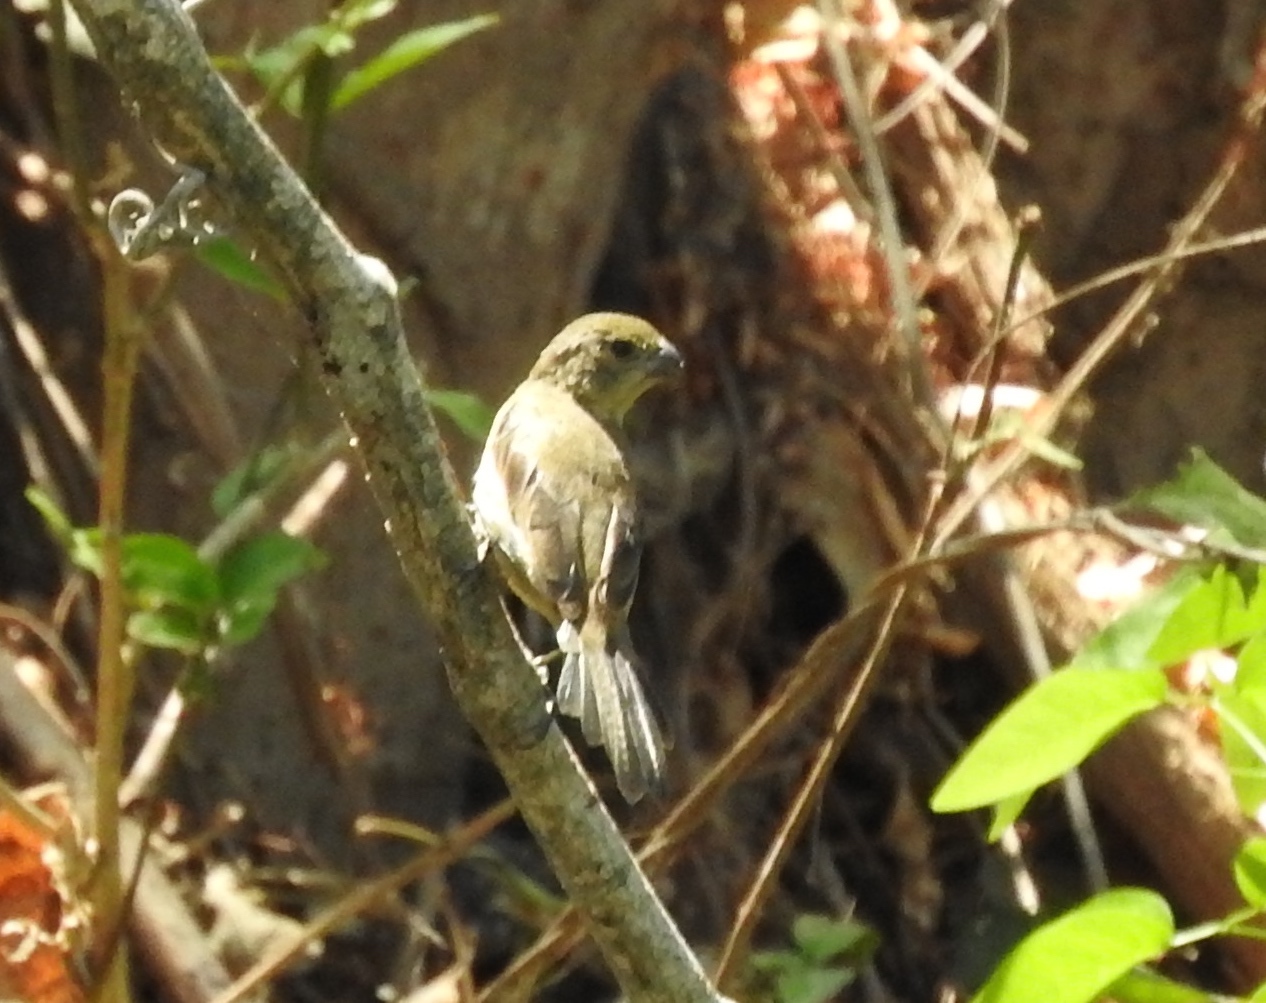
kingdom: Animalia
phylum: Chordata
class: Aves
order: Passeriformes
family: Thraupidae
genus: Sporophila
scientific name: Sporophila torqueola
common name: White-collared seedeater
